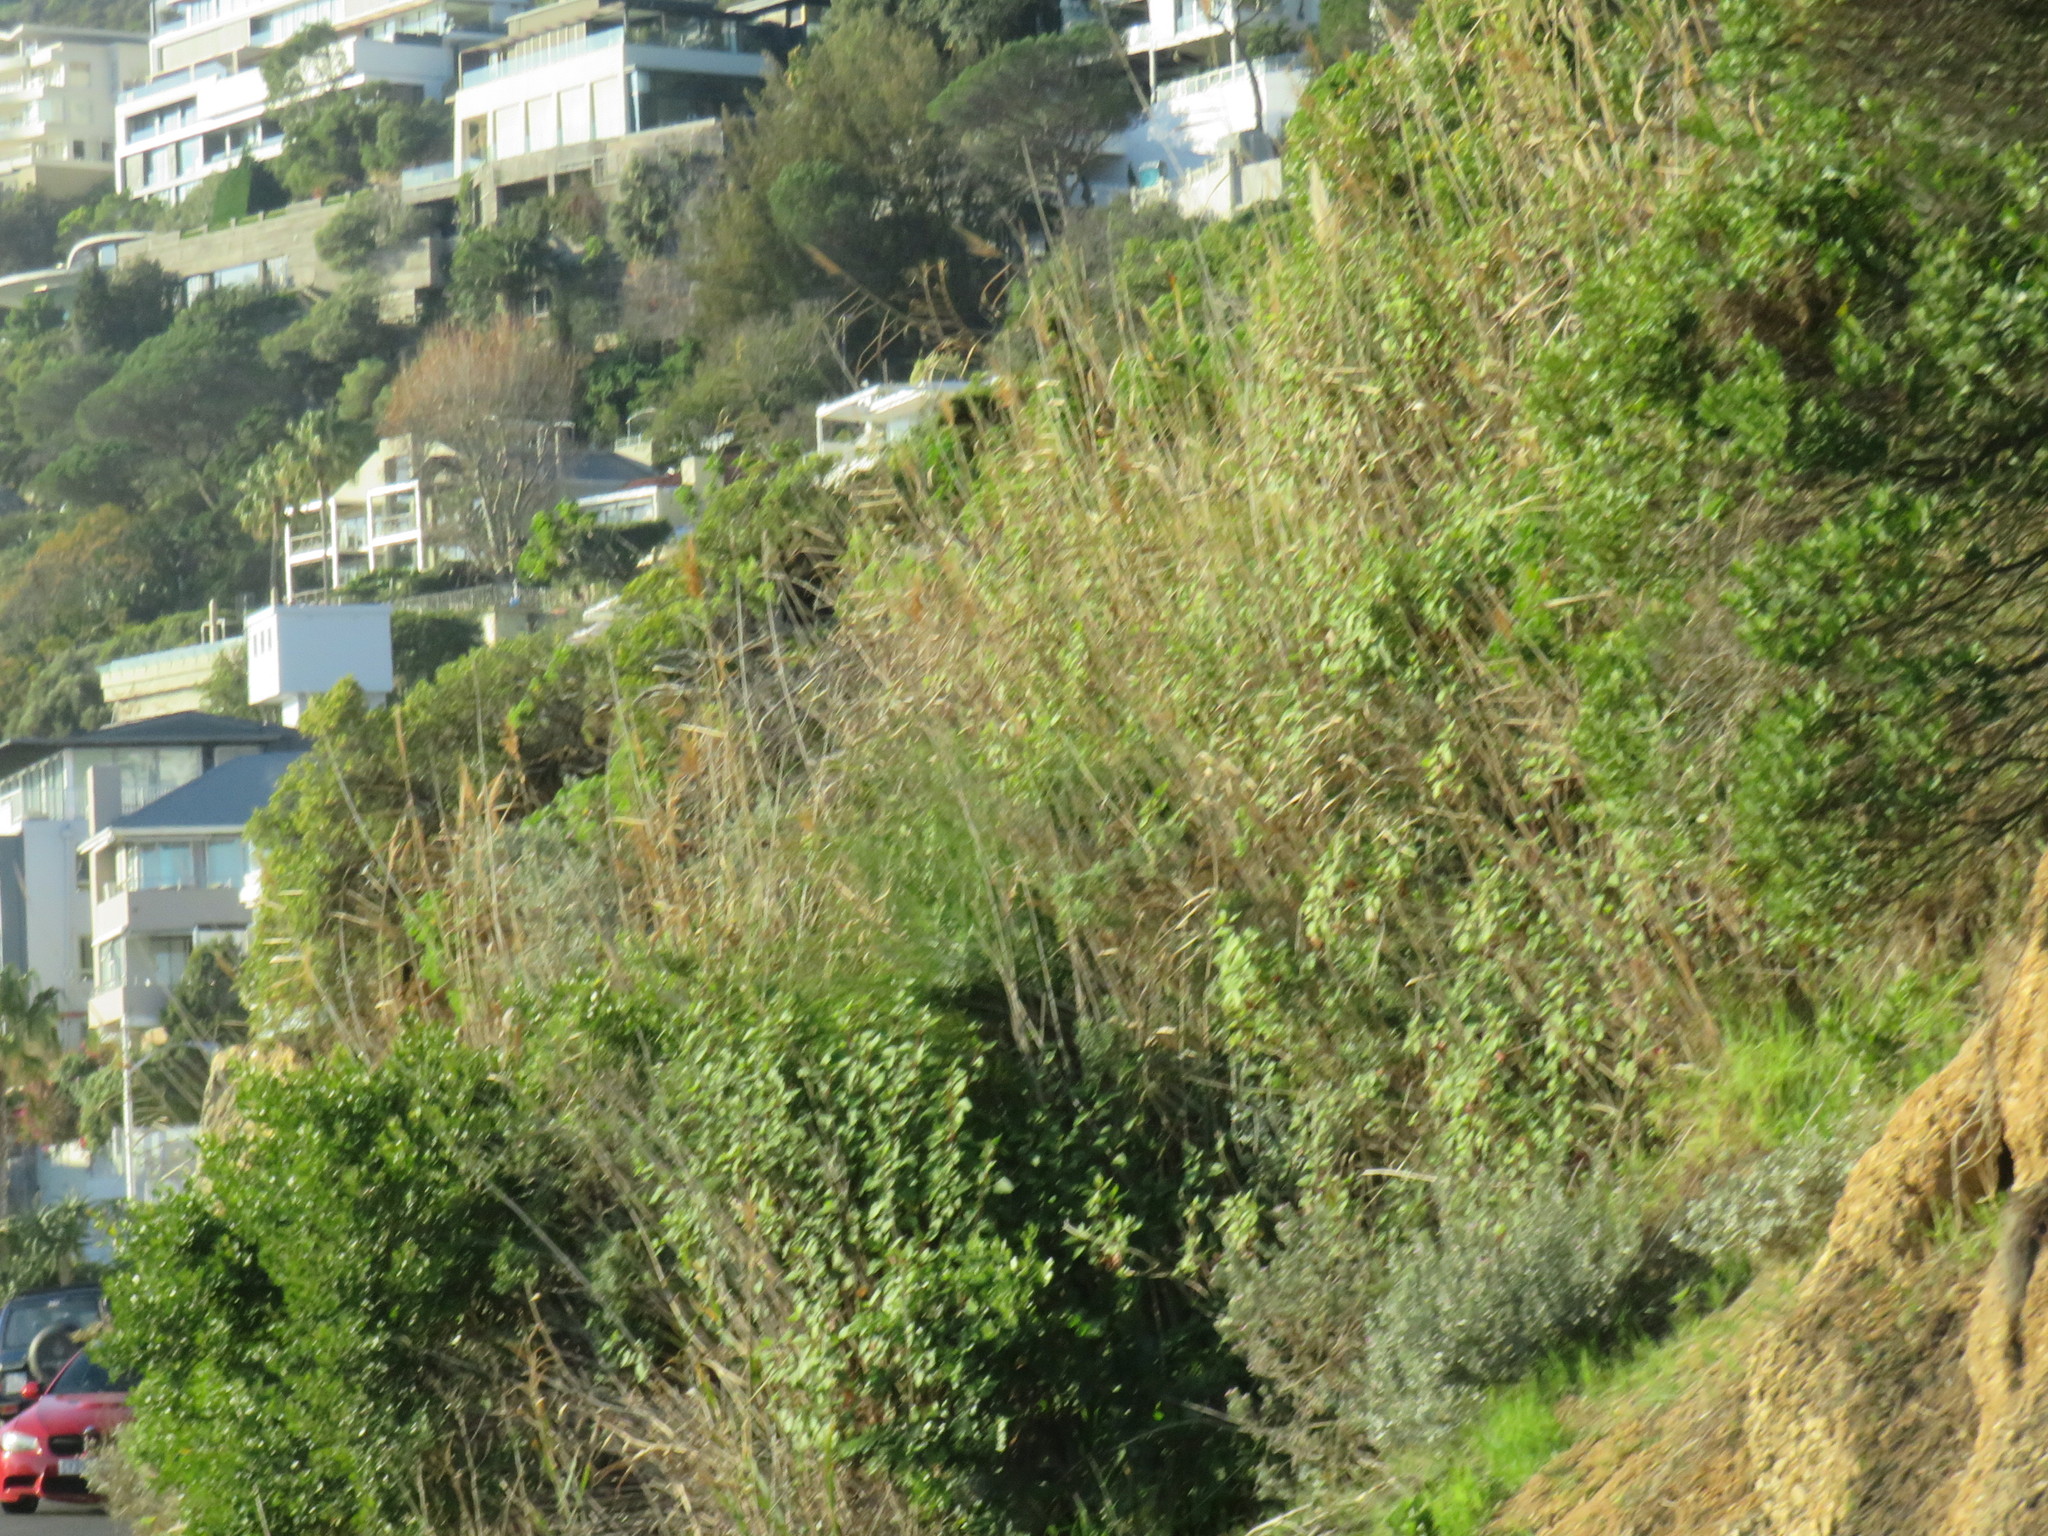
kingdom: Plantae
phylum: Tracheophyta
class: Liliopsida
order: Poales
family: Poaceae
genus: Phragmites
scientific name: Phragmites australis
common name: Common reed
